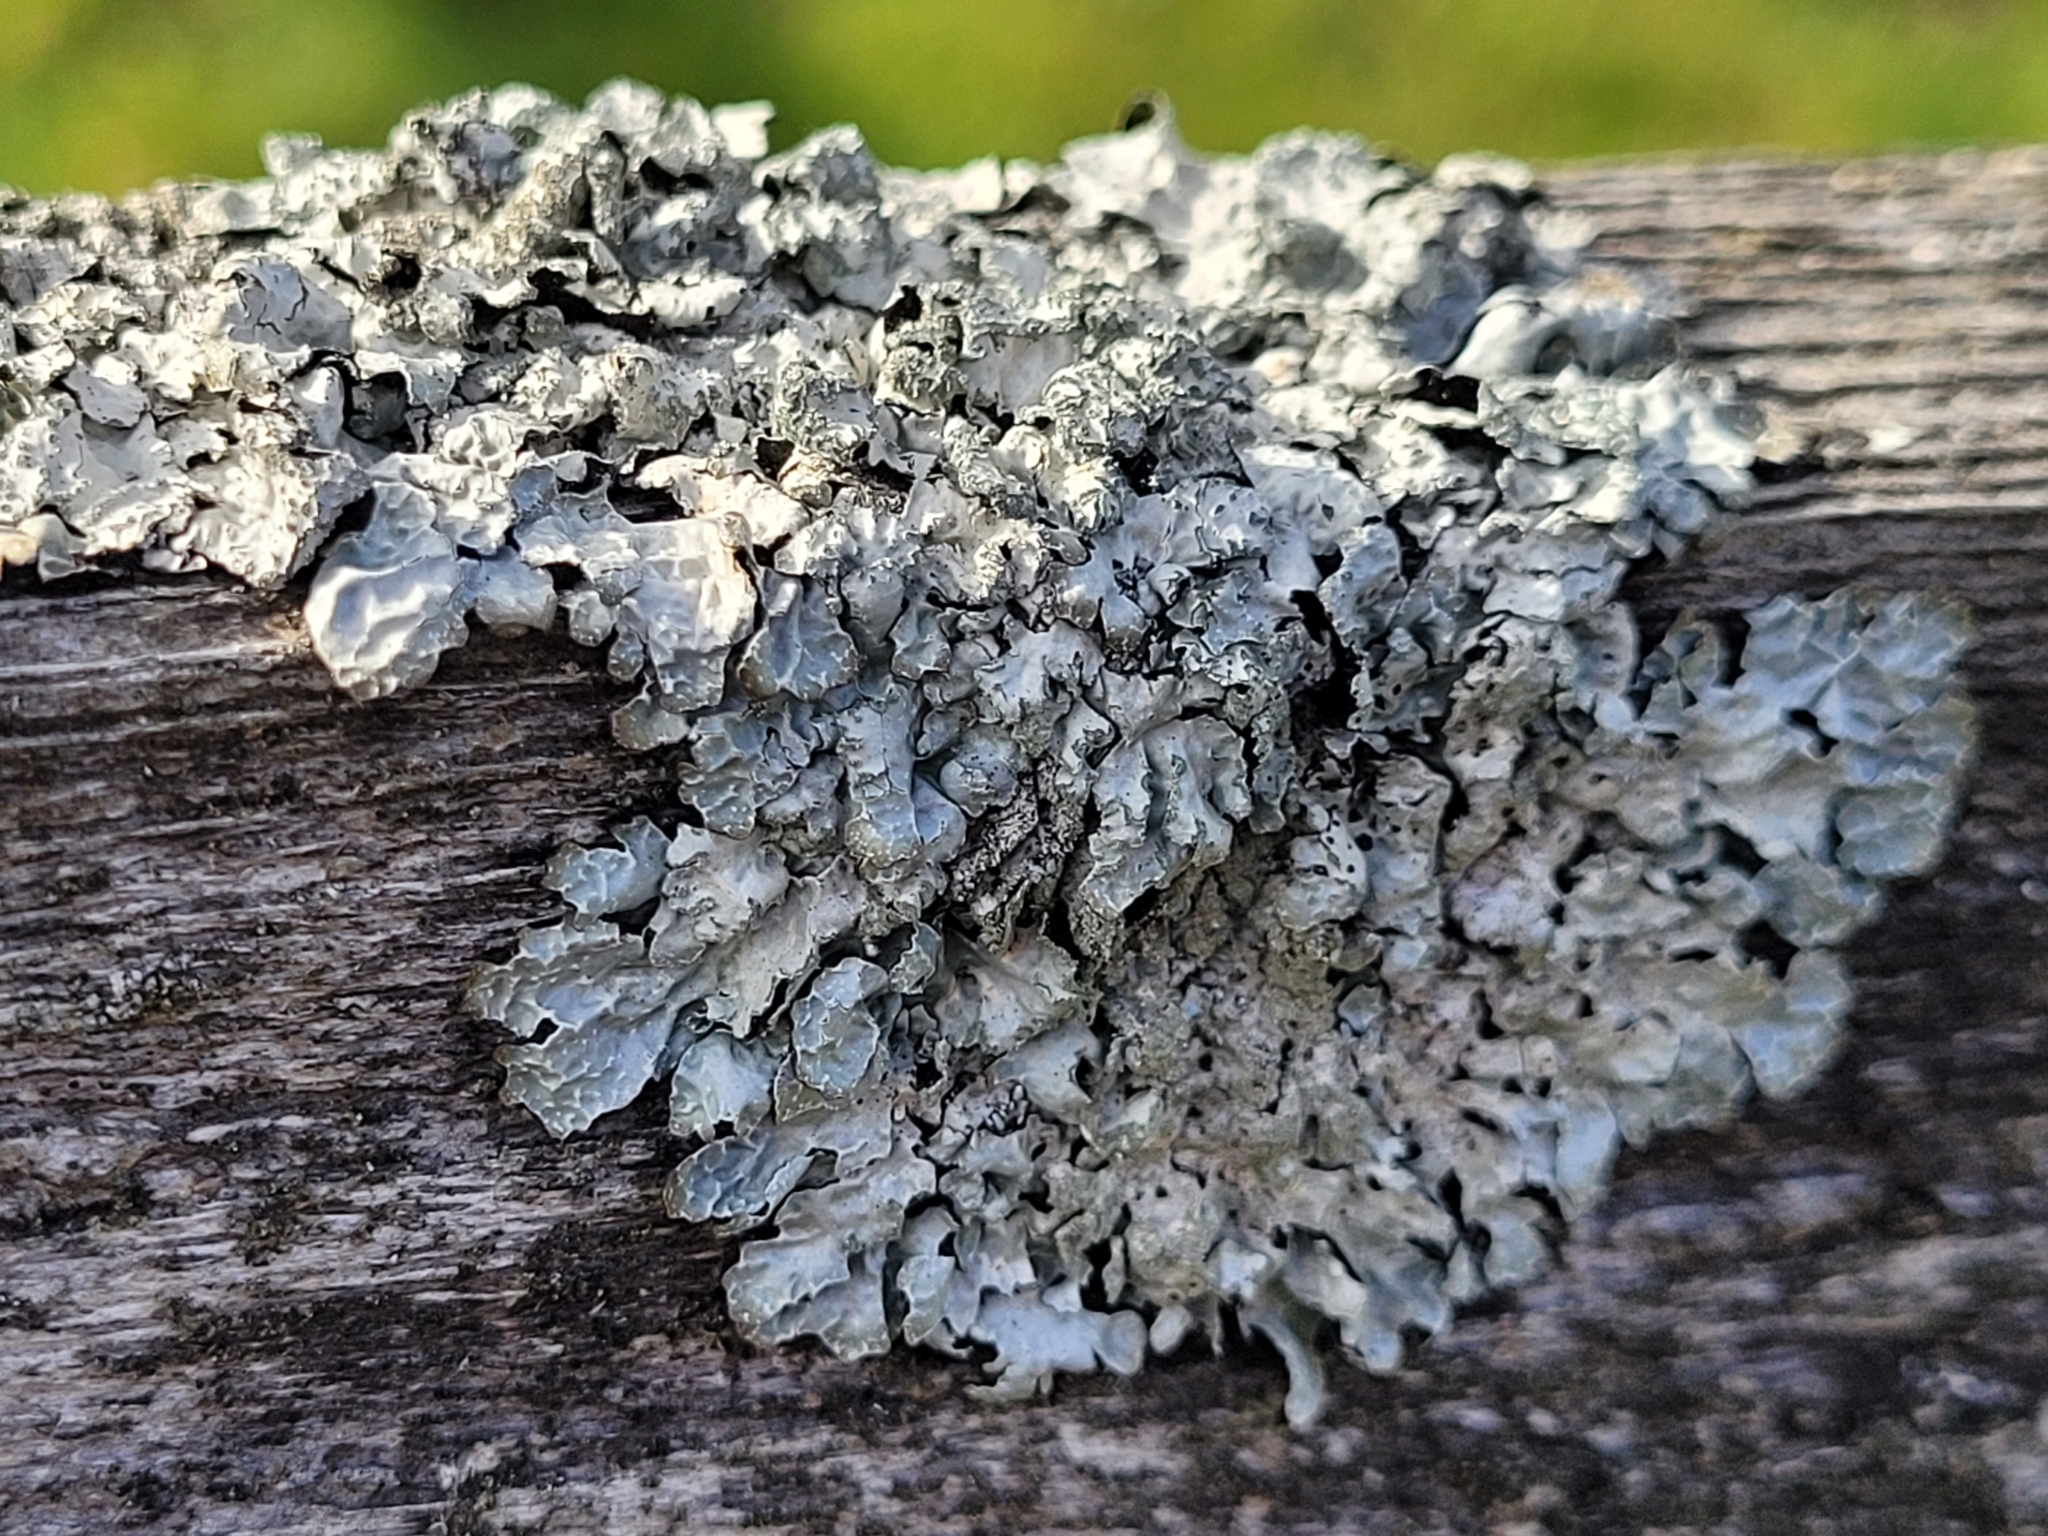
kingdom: Fungi
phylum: Ascomycota
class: Lecanoromycetes
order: Lecanorales
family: Parmeliaceae
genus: Parmelia
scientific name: Parmelia sulcata
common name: Netted shield lichen
